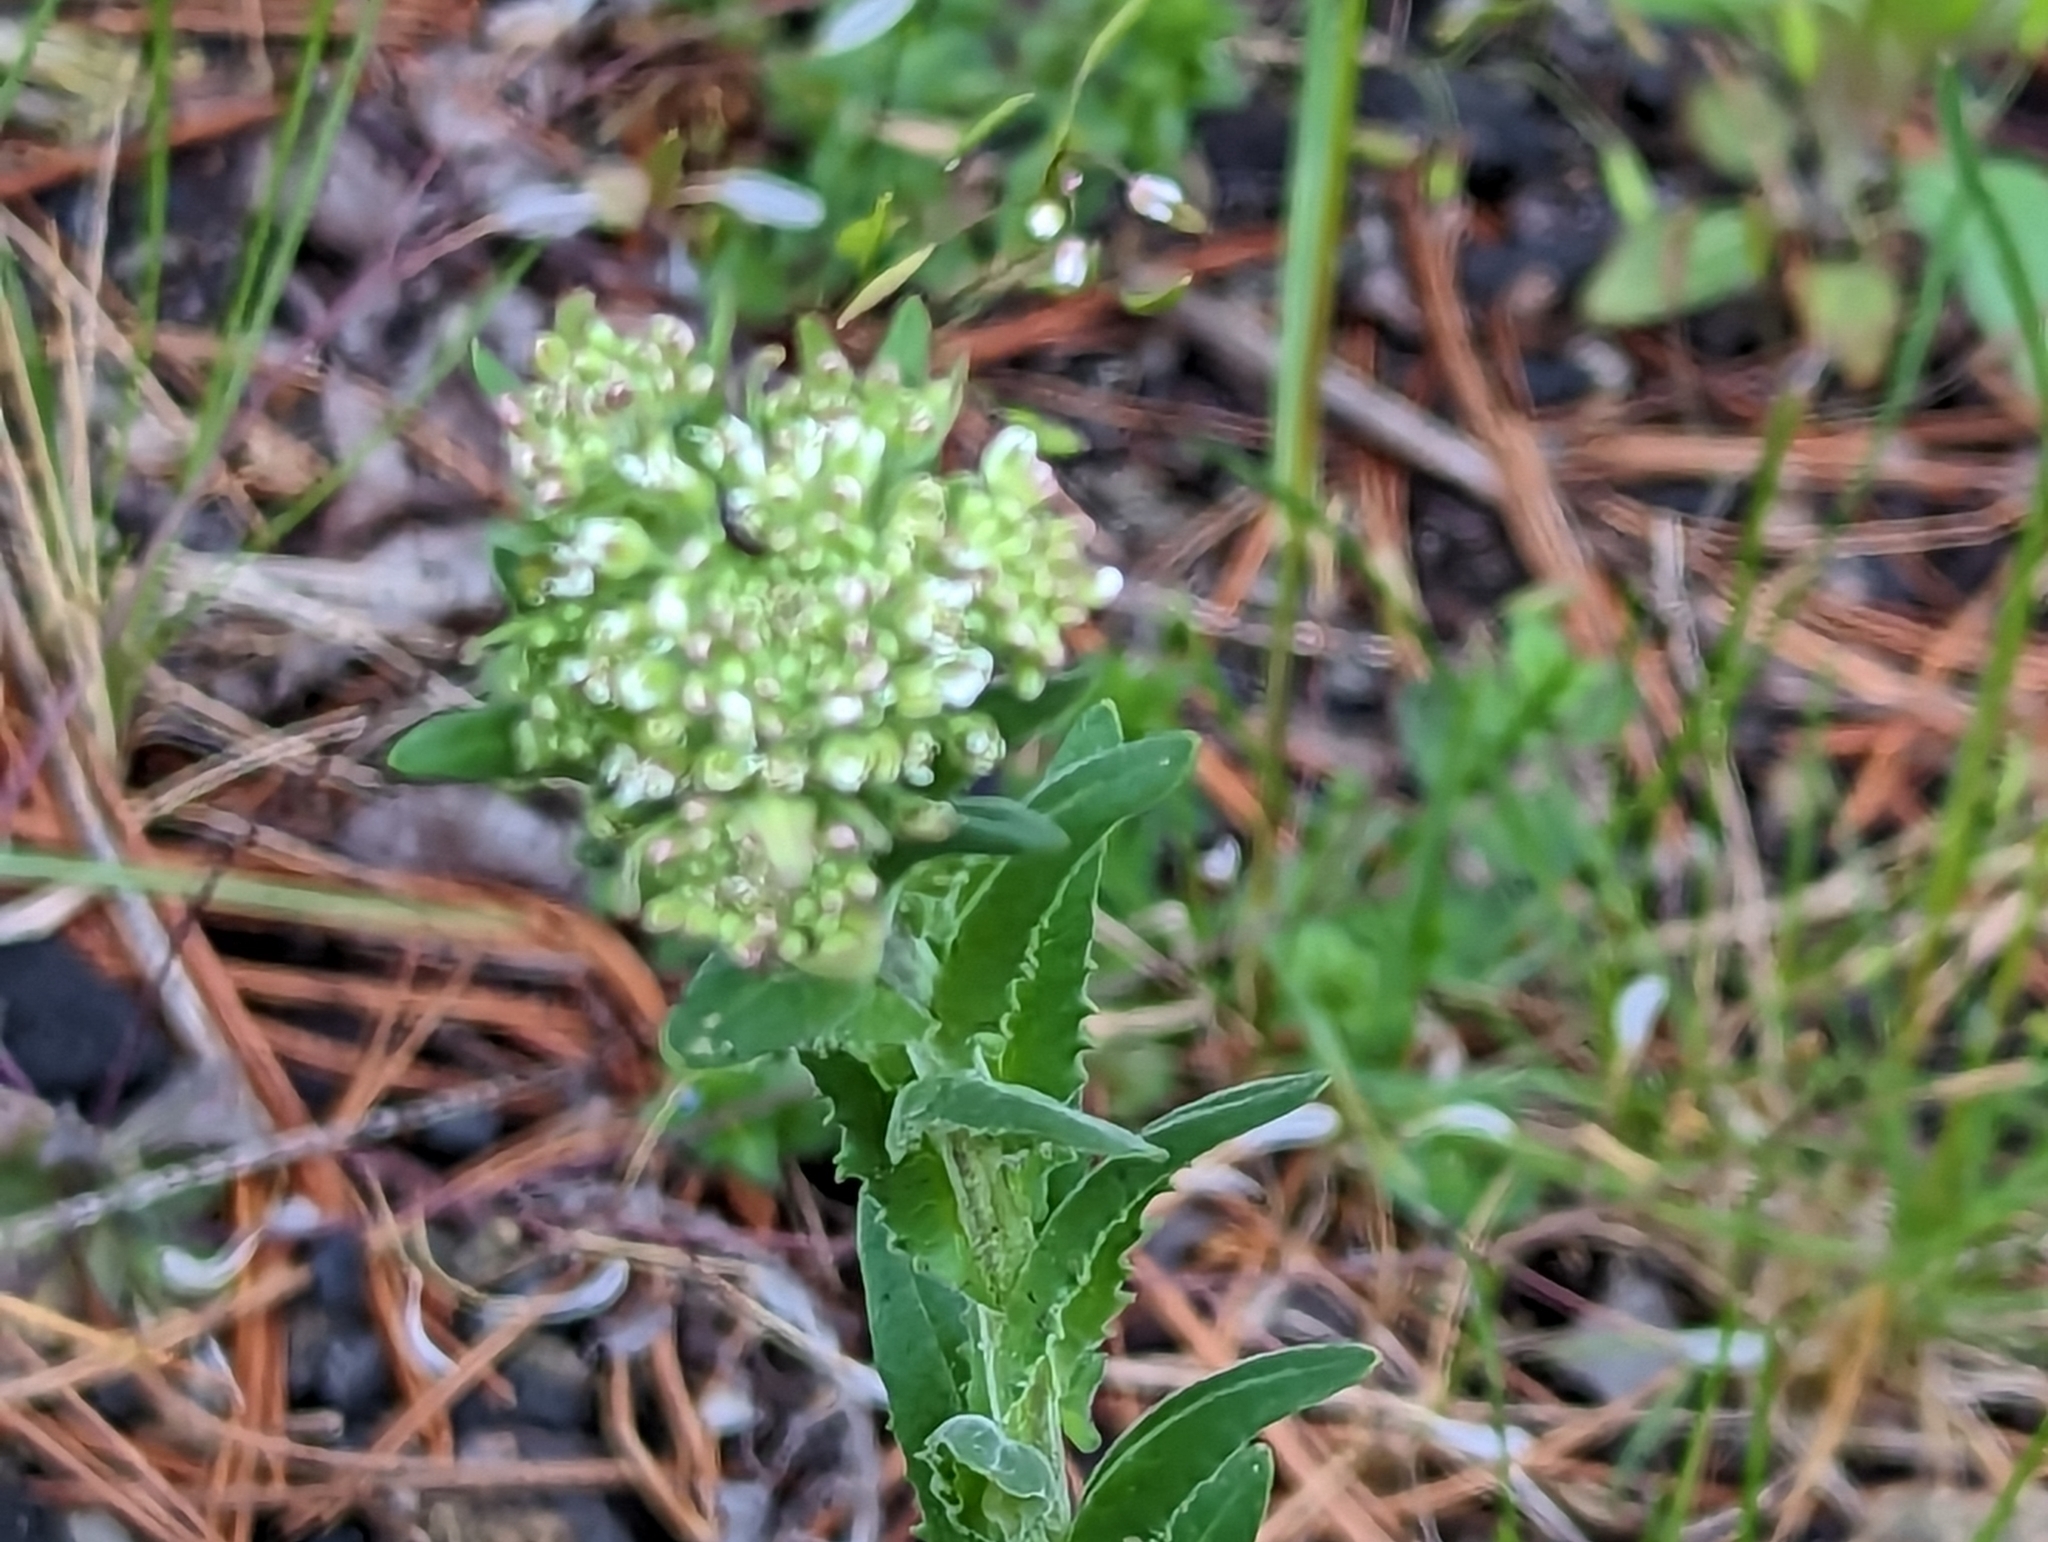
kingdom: Plantae
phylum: Tracheophyta
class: Magnoliopsida
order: Brassicales
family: Brassicaceae
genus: Lepidium
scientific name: Lepidium campestre
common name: Field pepperwort
